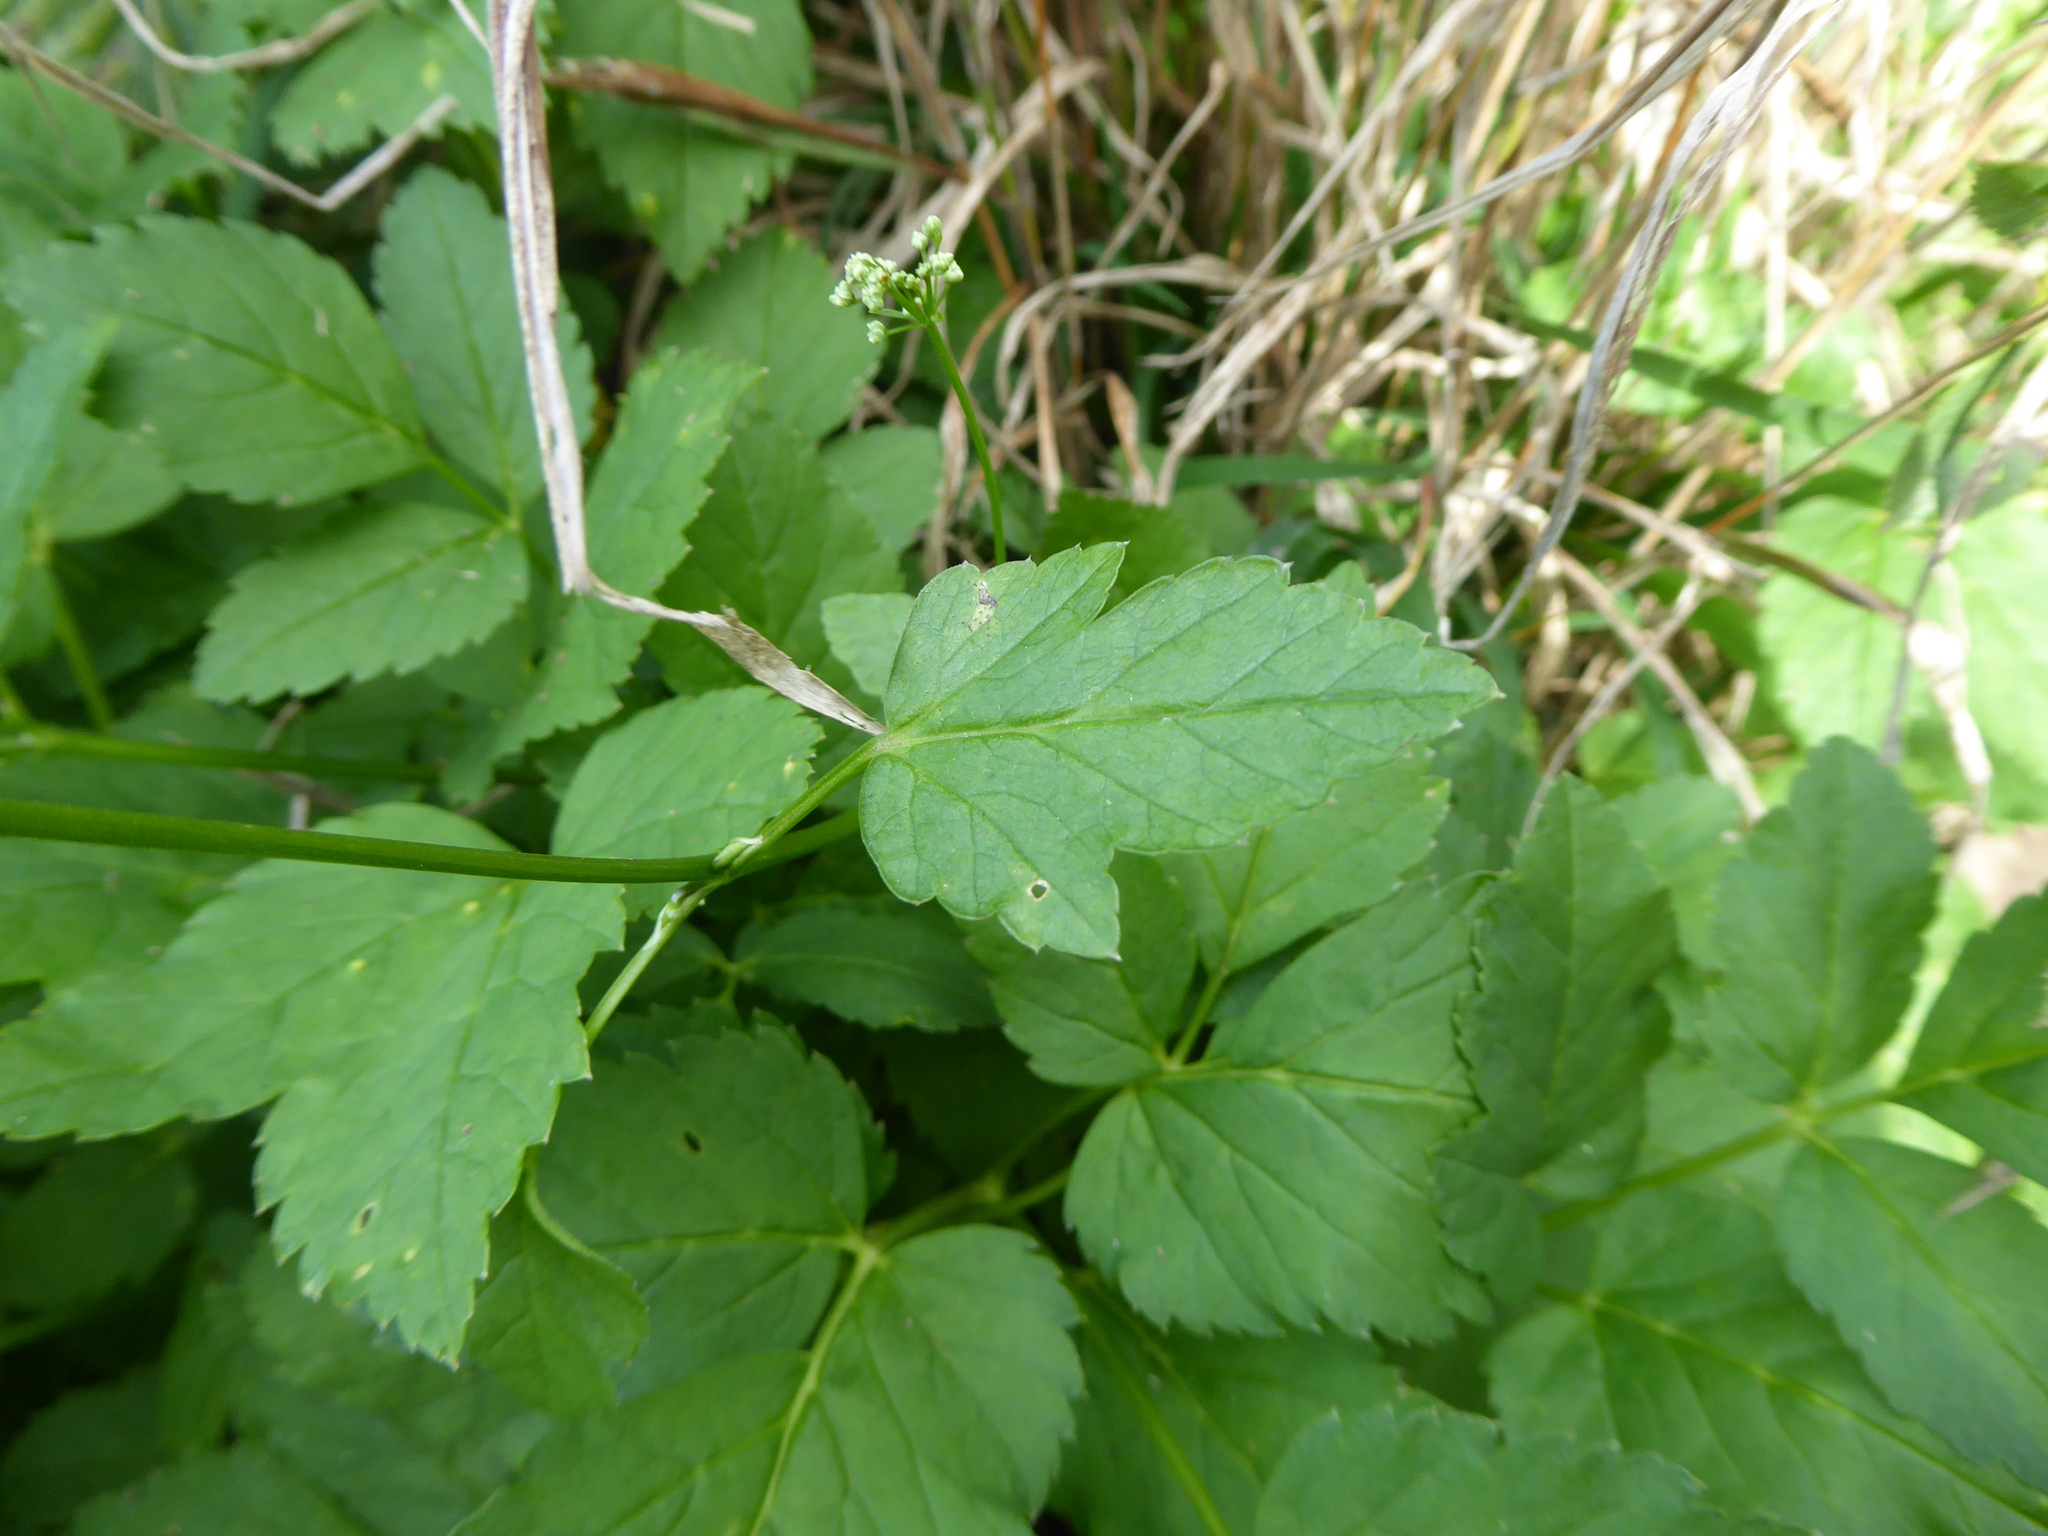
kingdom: Plantae
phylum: Tracheophyta
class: Magnoliopsida
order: Apiales
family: Apiaceae
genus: Aegopodium
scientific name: Aegopodium podagraria
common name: Ground-elder
